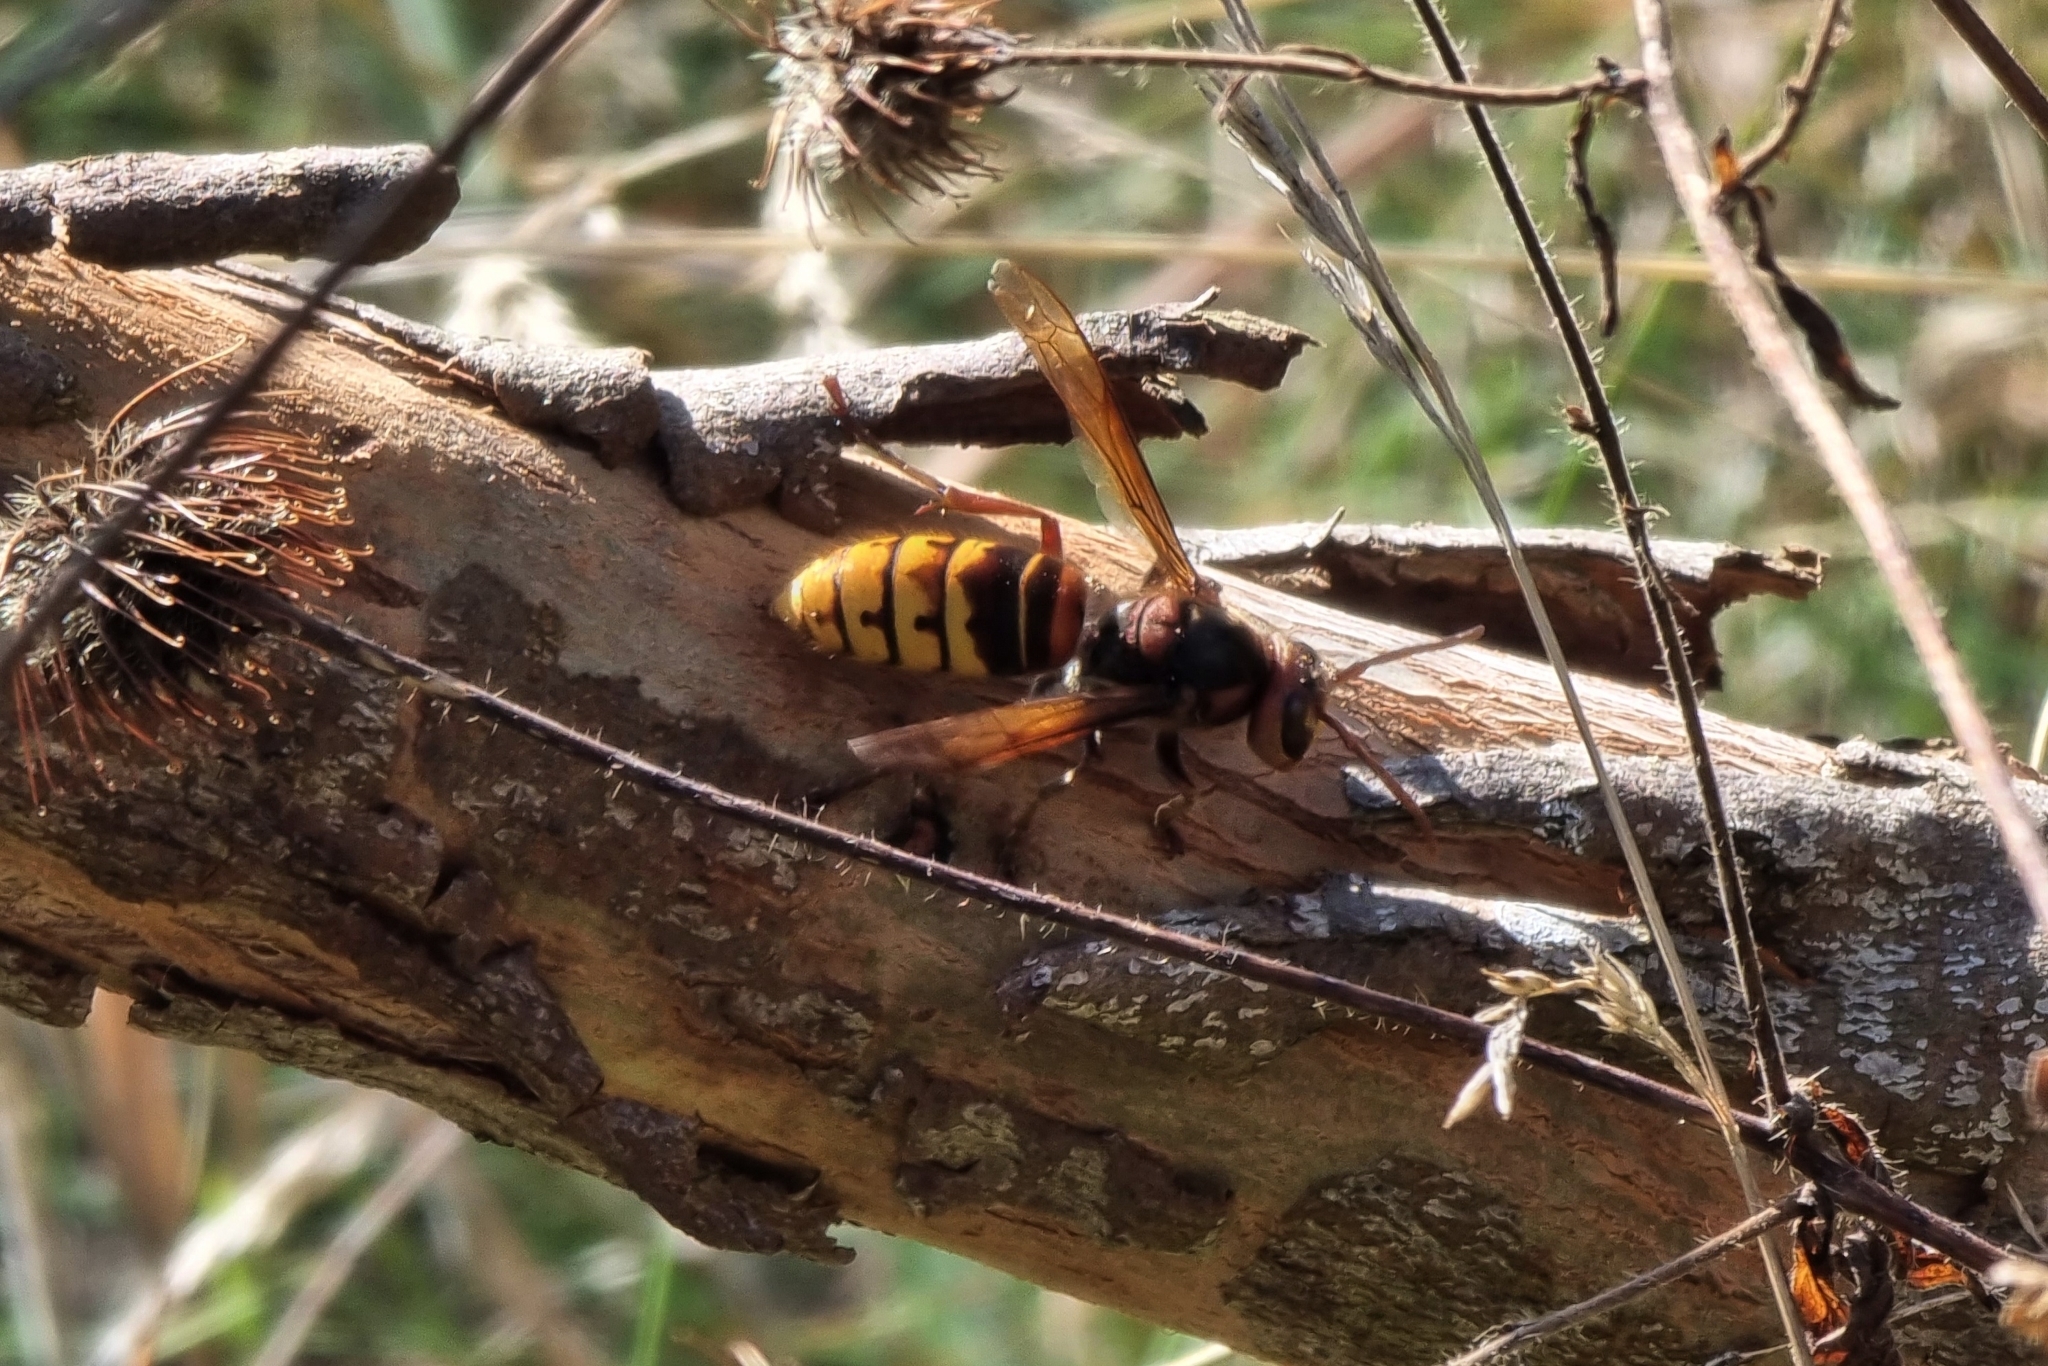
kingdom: Animalia
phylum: Arthropoda
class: Insecta
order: Hymenoptera
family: Vespidae
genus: Vespa
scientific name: Vespa crabro
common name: Hornet
